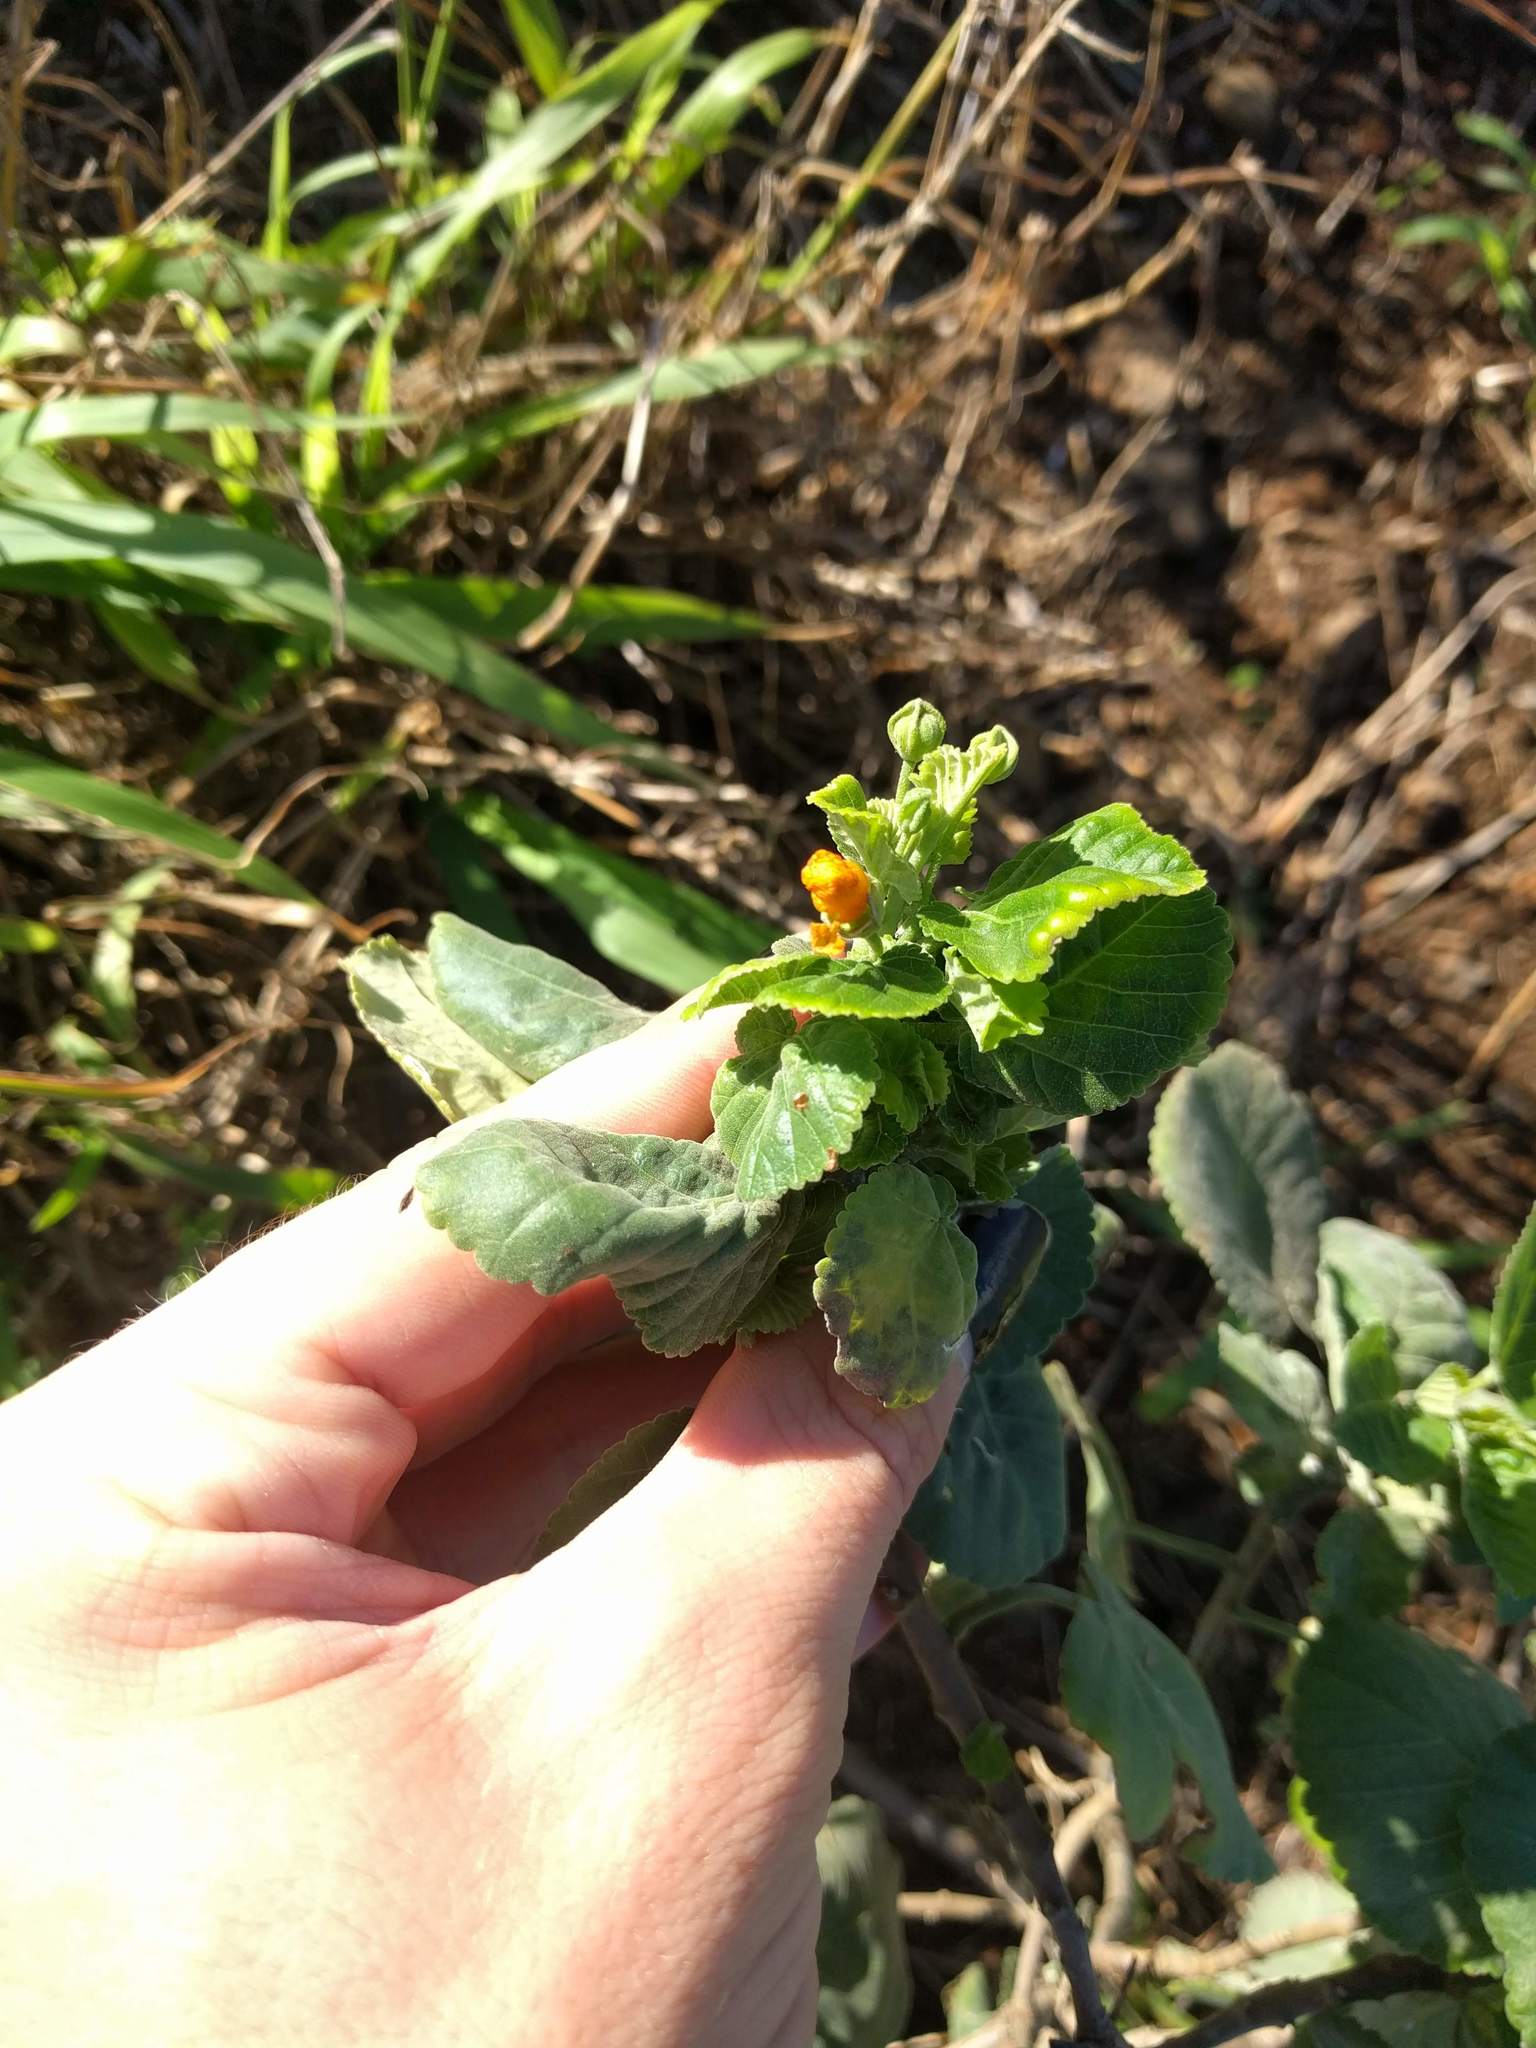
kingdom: Plantae
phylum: Tracheophyta
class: Magnoliopsida
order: Malvales
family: Malvaceae
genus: Sida
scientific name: Sida fallax
